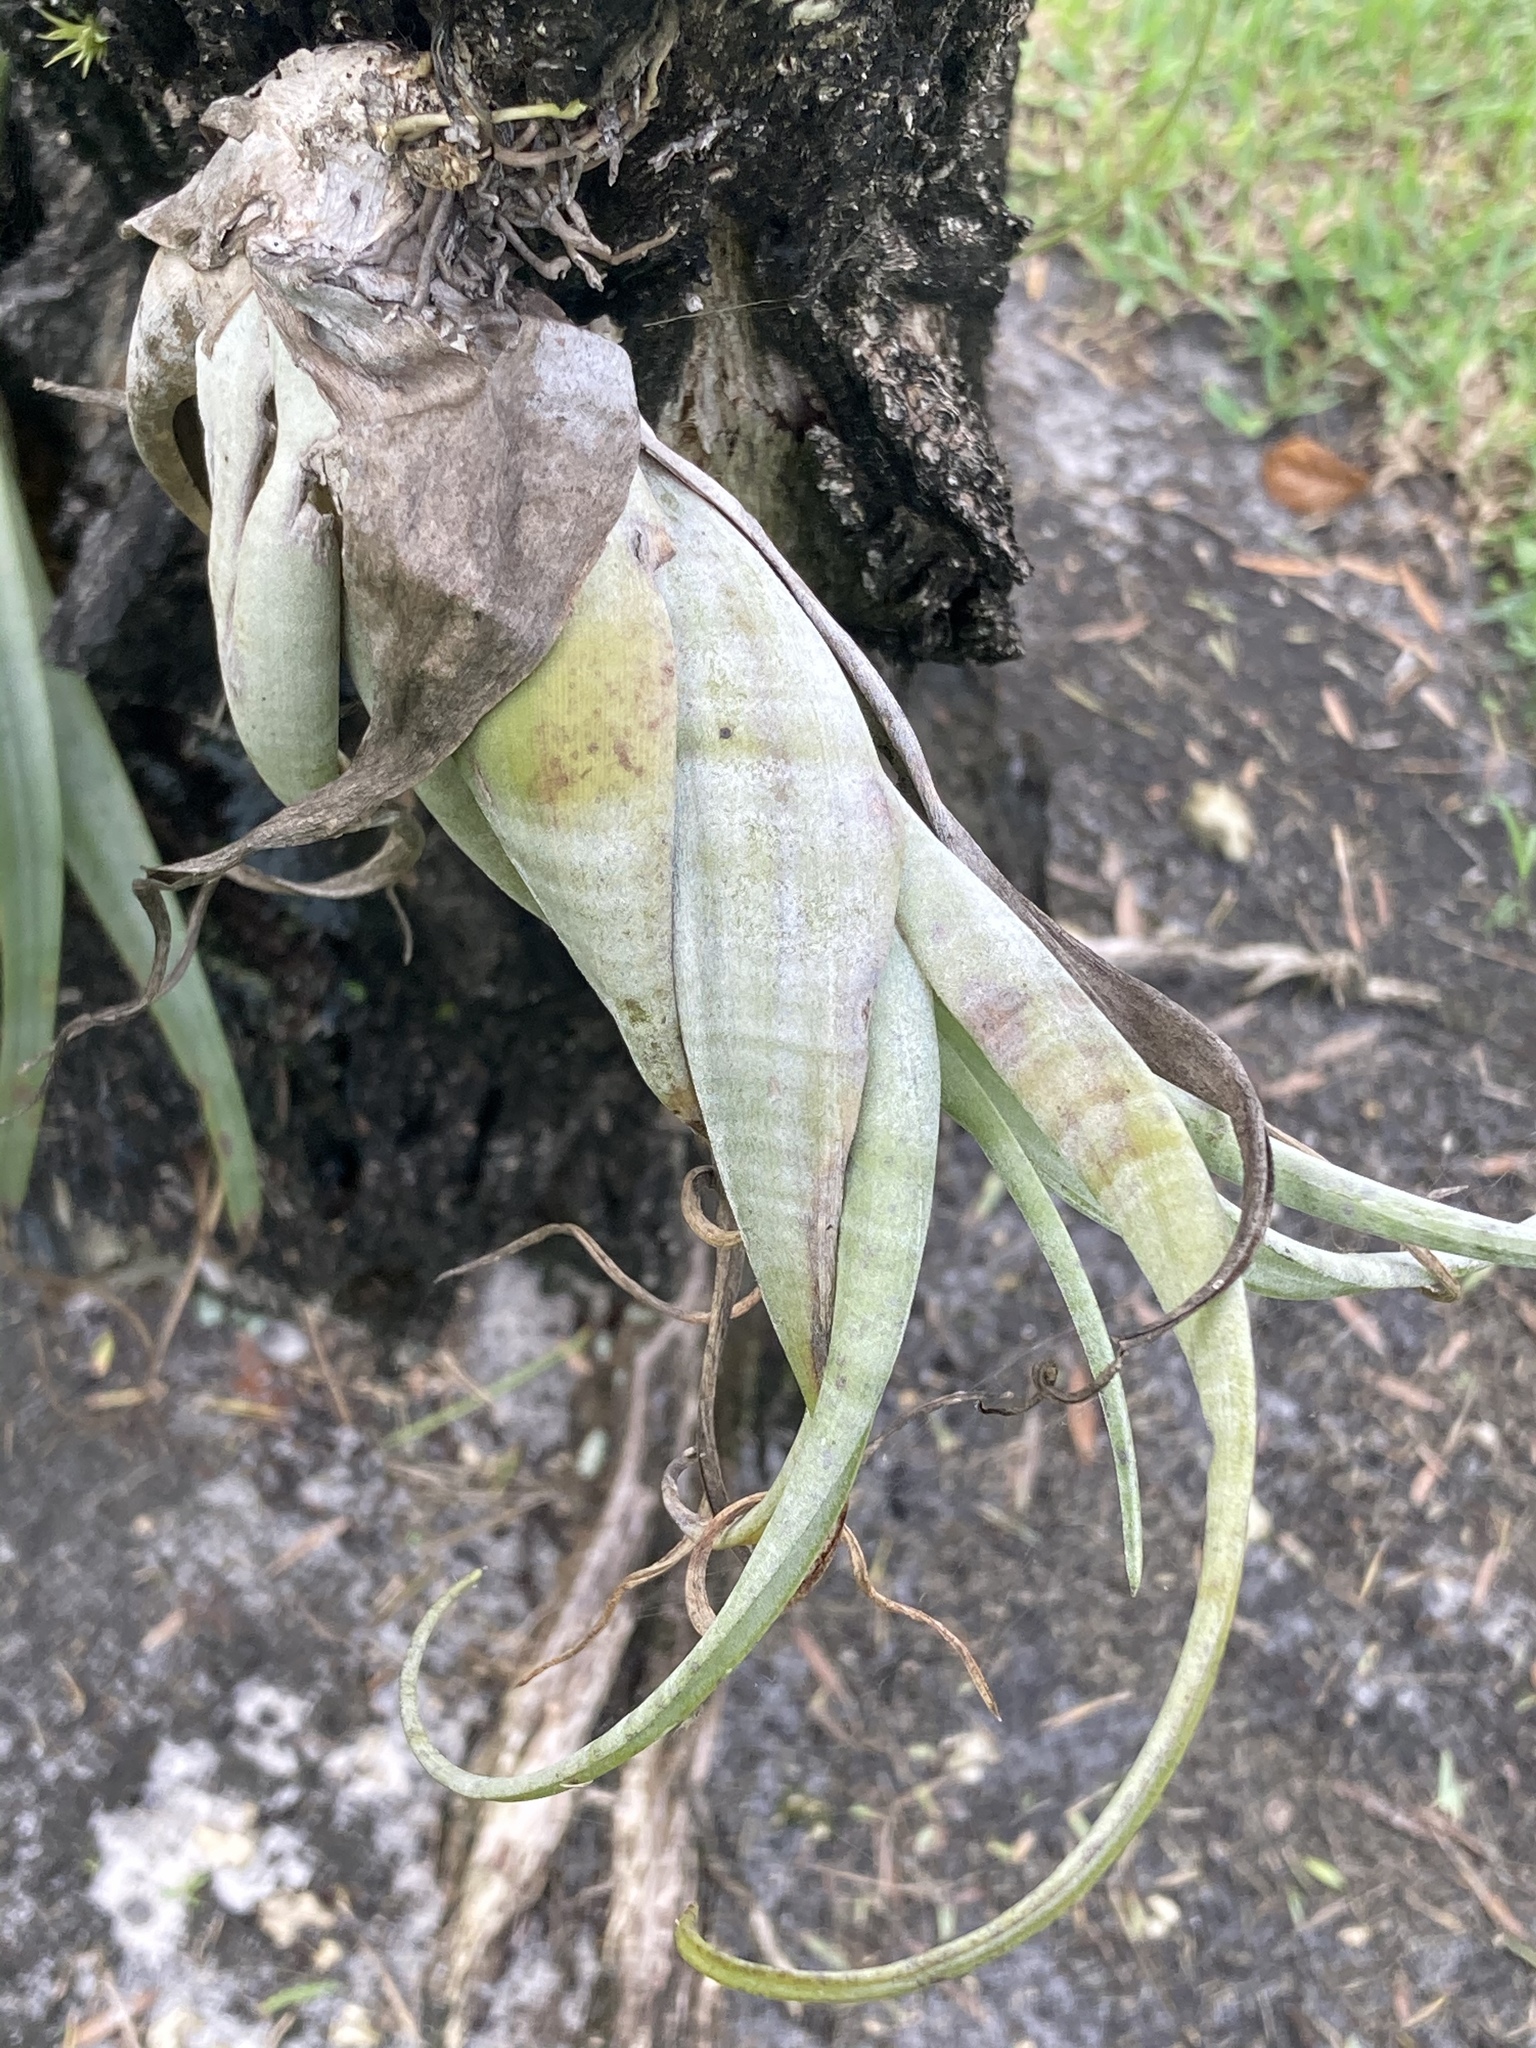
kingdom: Plantae
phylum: Tracheophyta
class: Liliopsida
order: Poales
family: Bromeliaceae
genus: Tillandsia
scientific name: Tillandsia flexuosa
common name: Banded airplant
